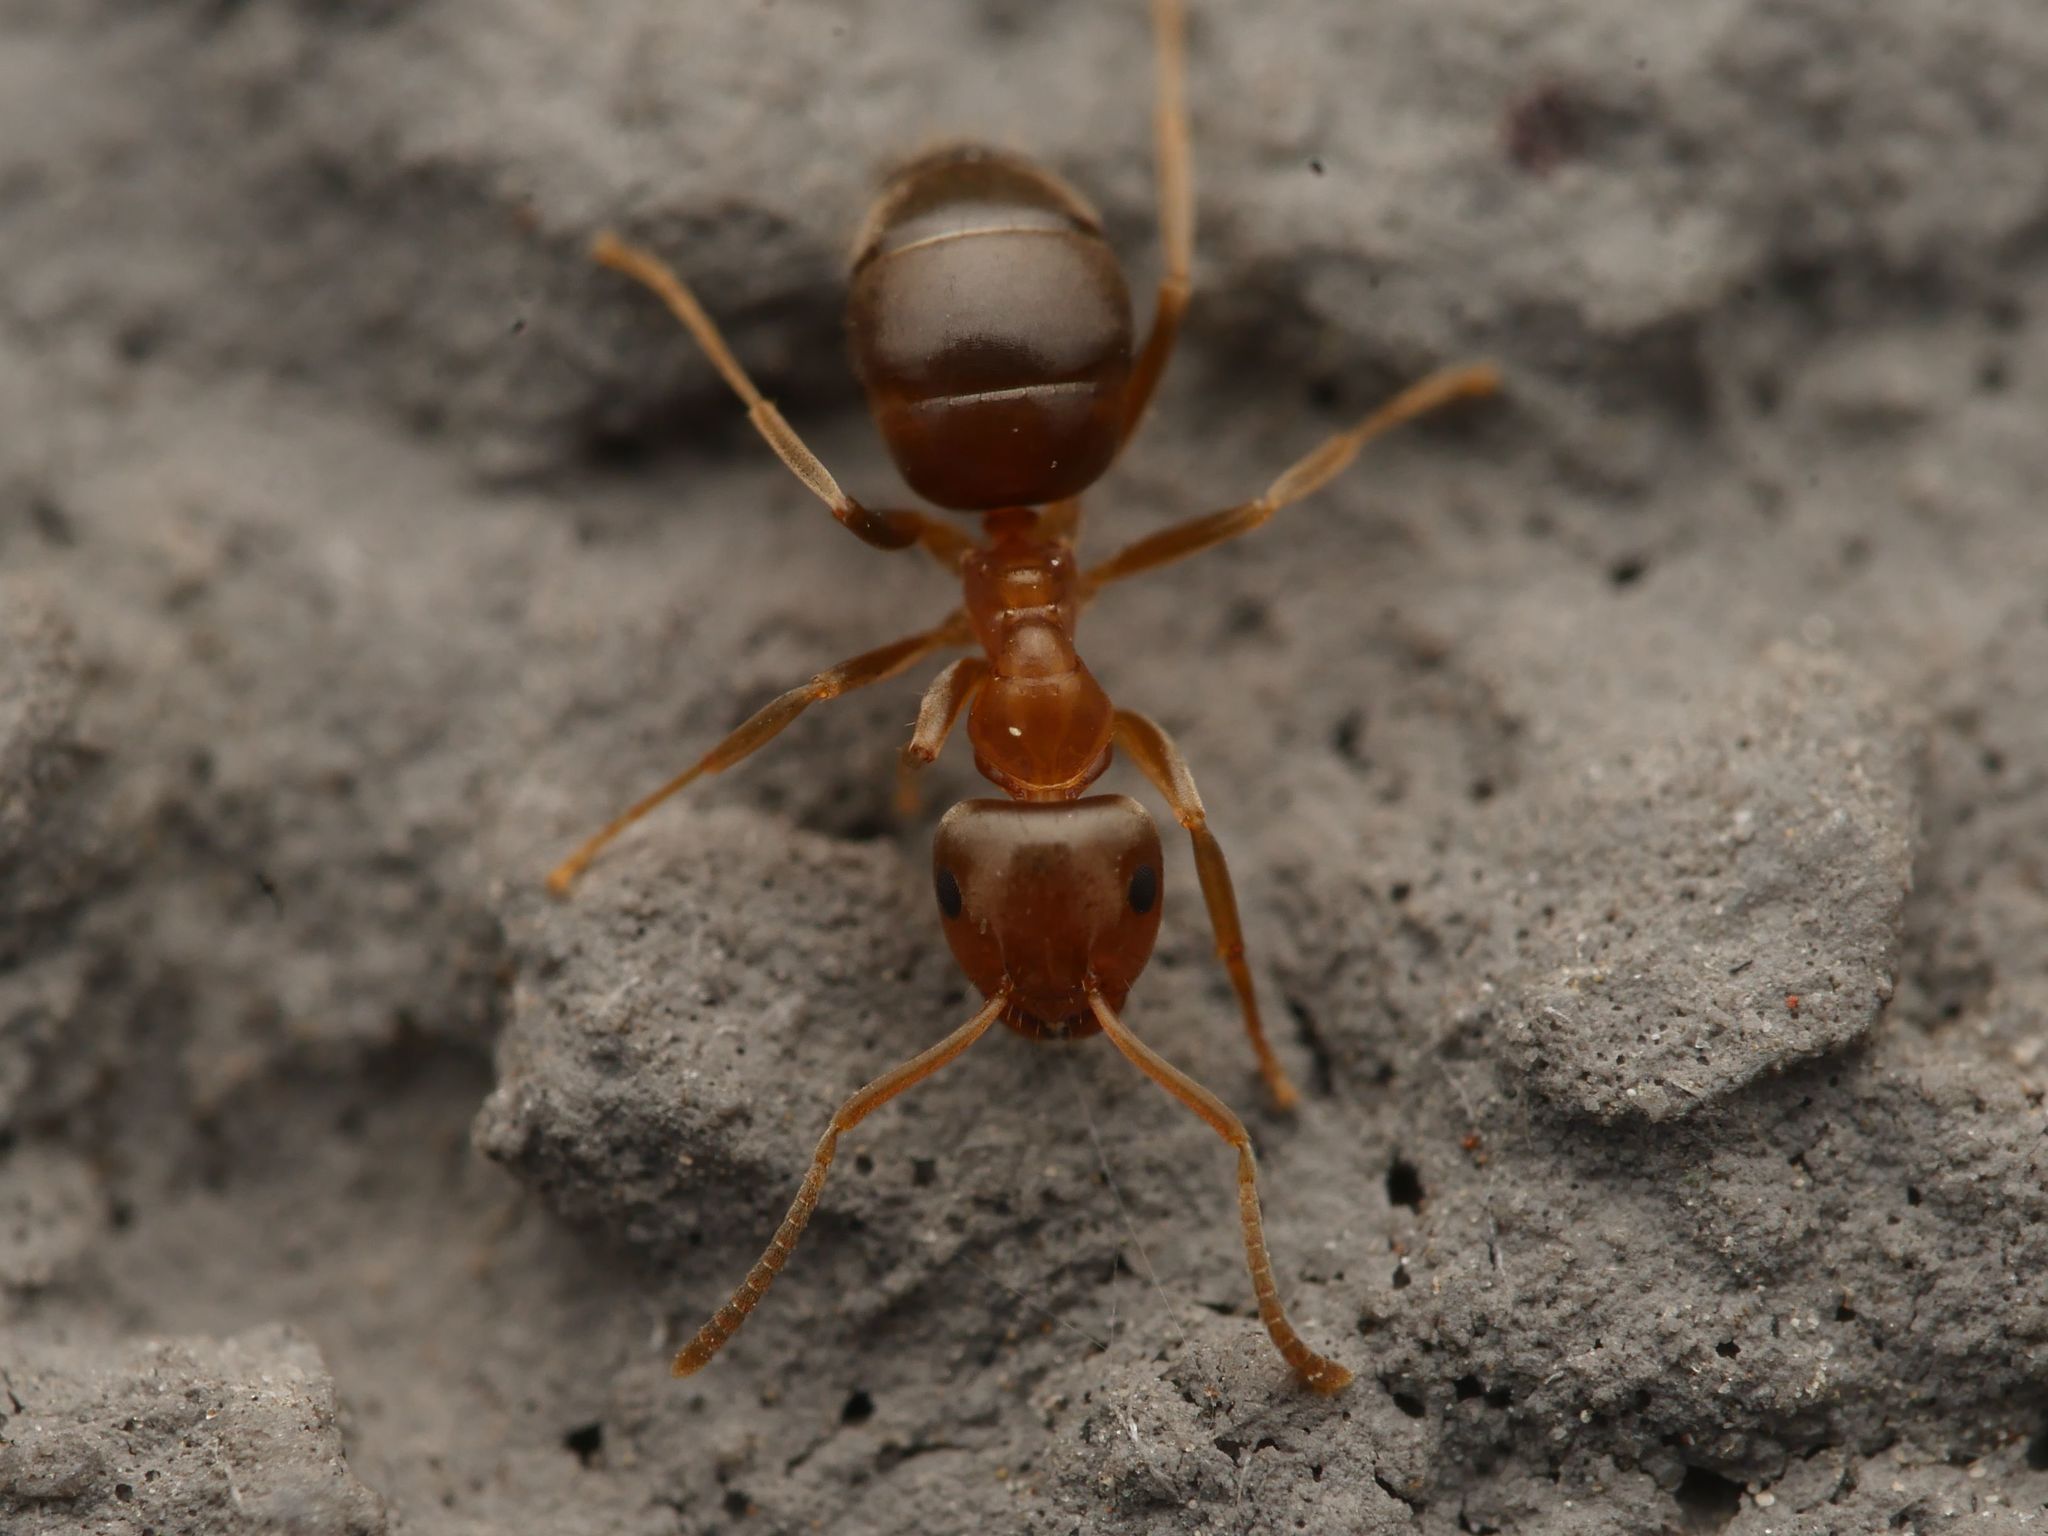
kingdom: Animalia
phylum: Arthropoda
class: Insecta
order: Hymenoptera
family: Formicidae
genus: Lasius
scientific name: Lasius brunneus
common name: Brown ant
